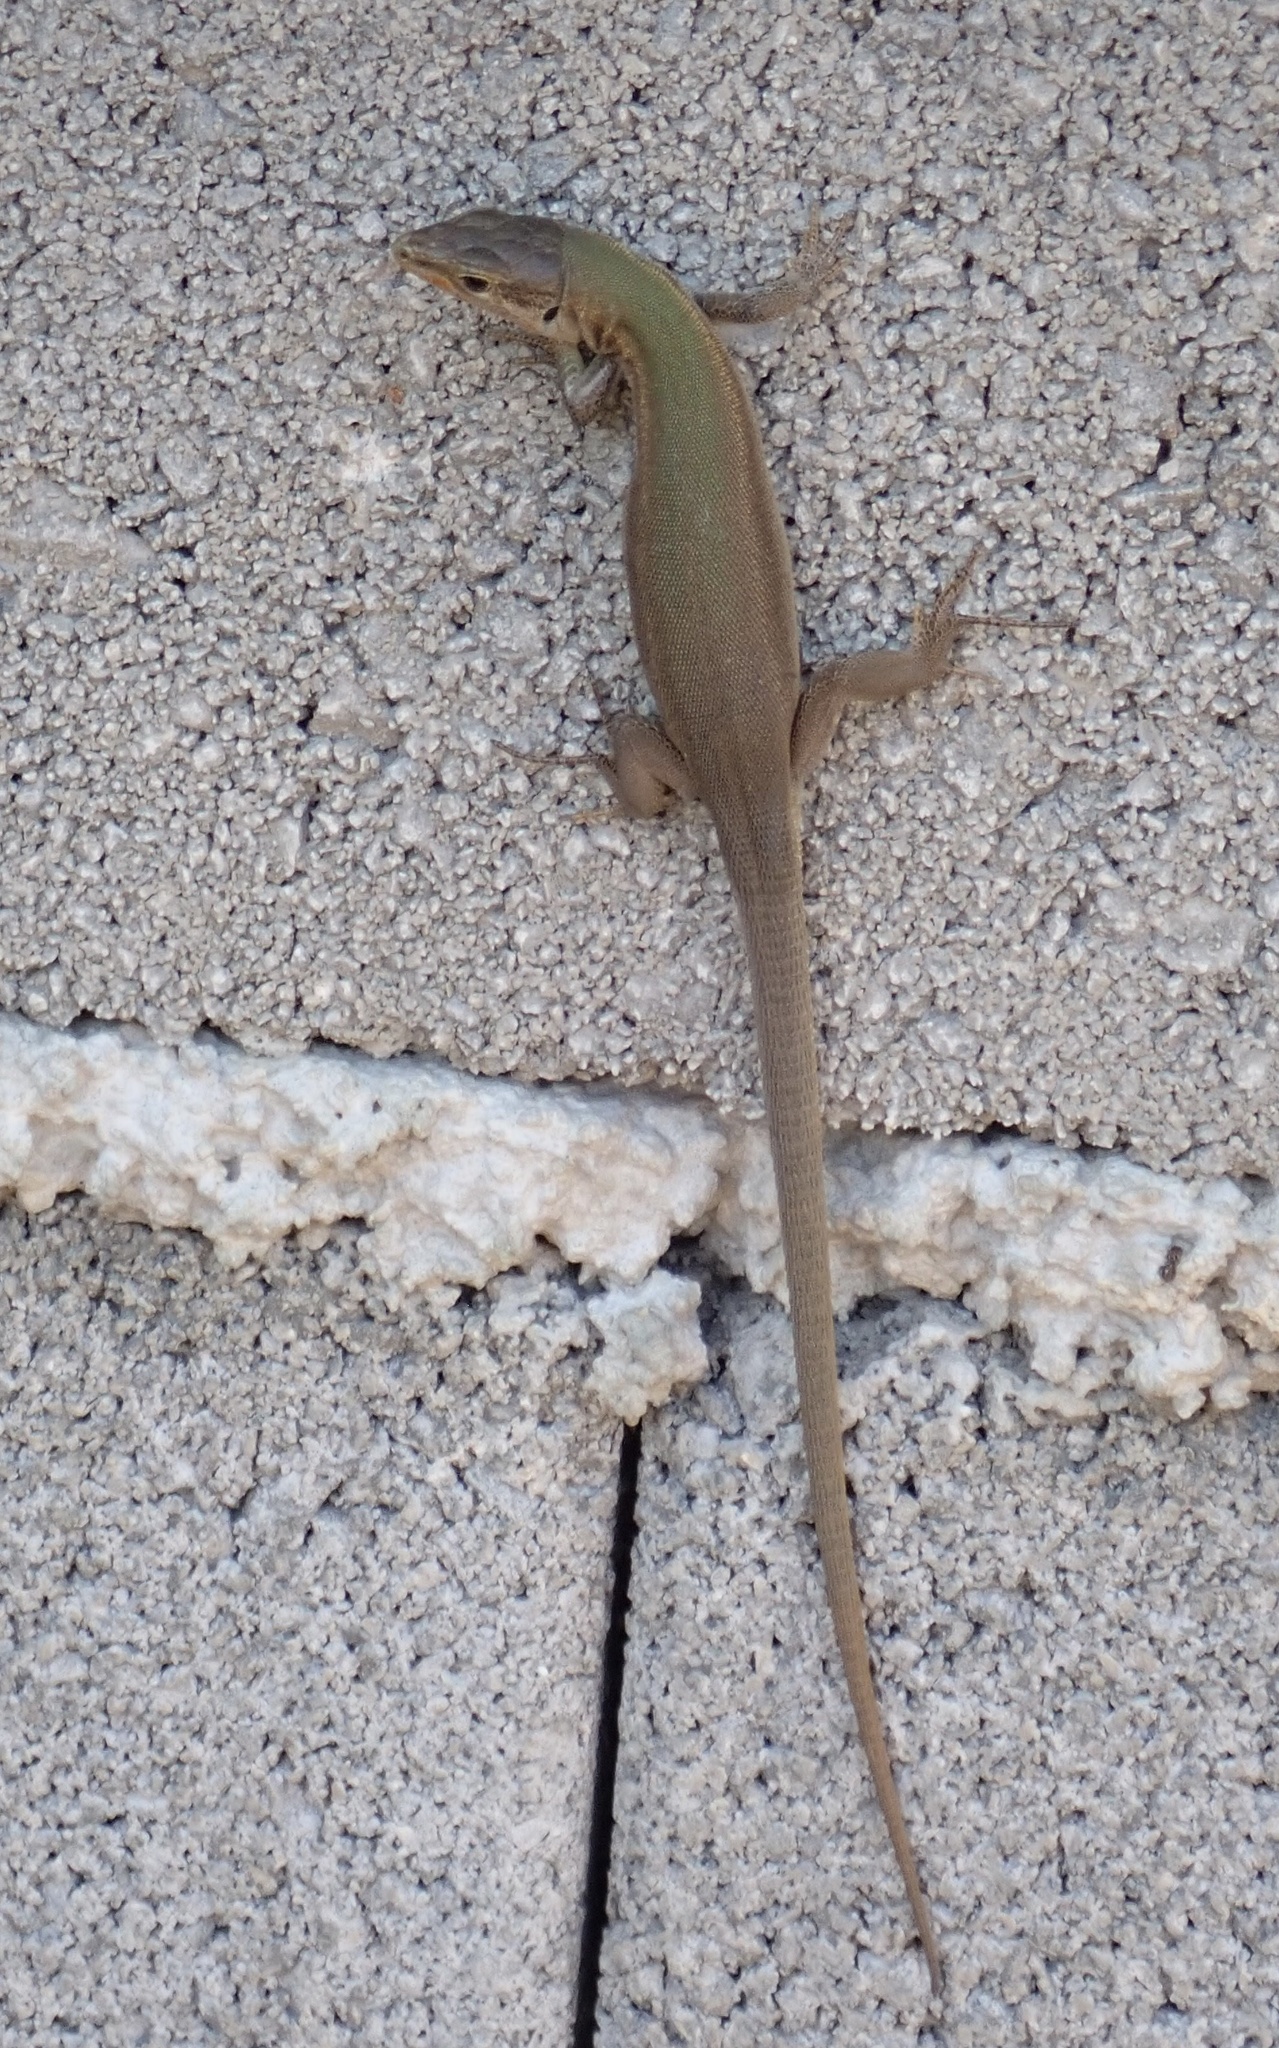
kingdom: Animalia
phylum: Chordata
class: Squamata
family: Lacertidae
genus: Podarcis
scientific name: Podarcis melisellensis
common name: Dalmatian wall lizard
